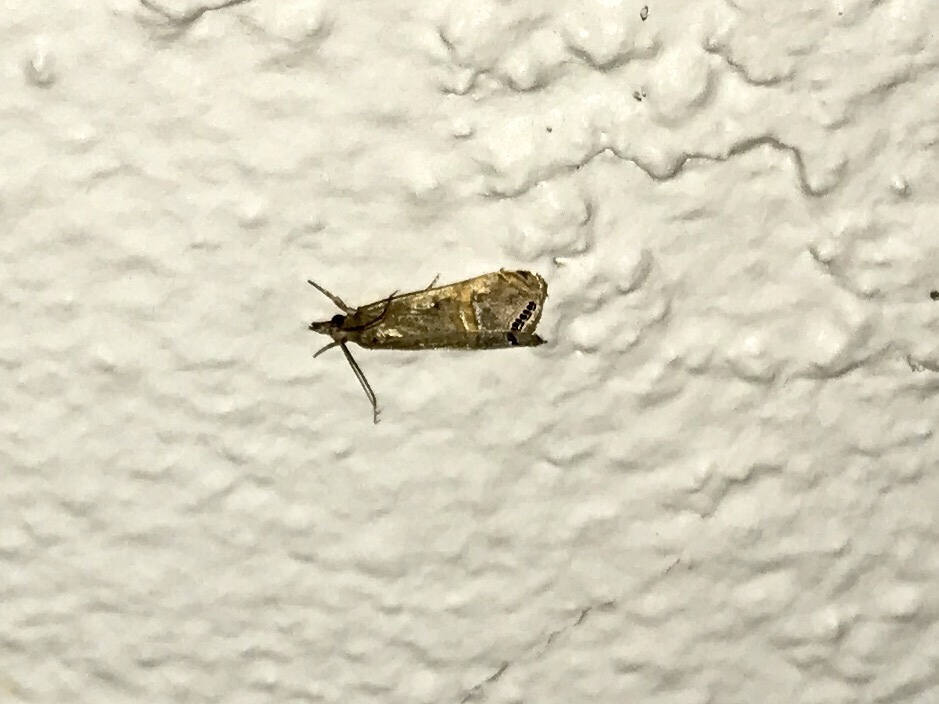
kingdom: Animalia
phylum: Arthropoda
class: Insecta
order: Lepidoptera
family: Crambidae
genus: Euchromius
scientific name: Euchromius ocellea
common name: Necklace veneer moth
